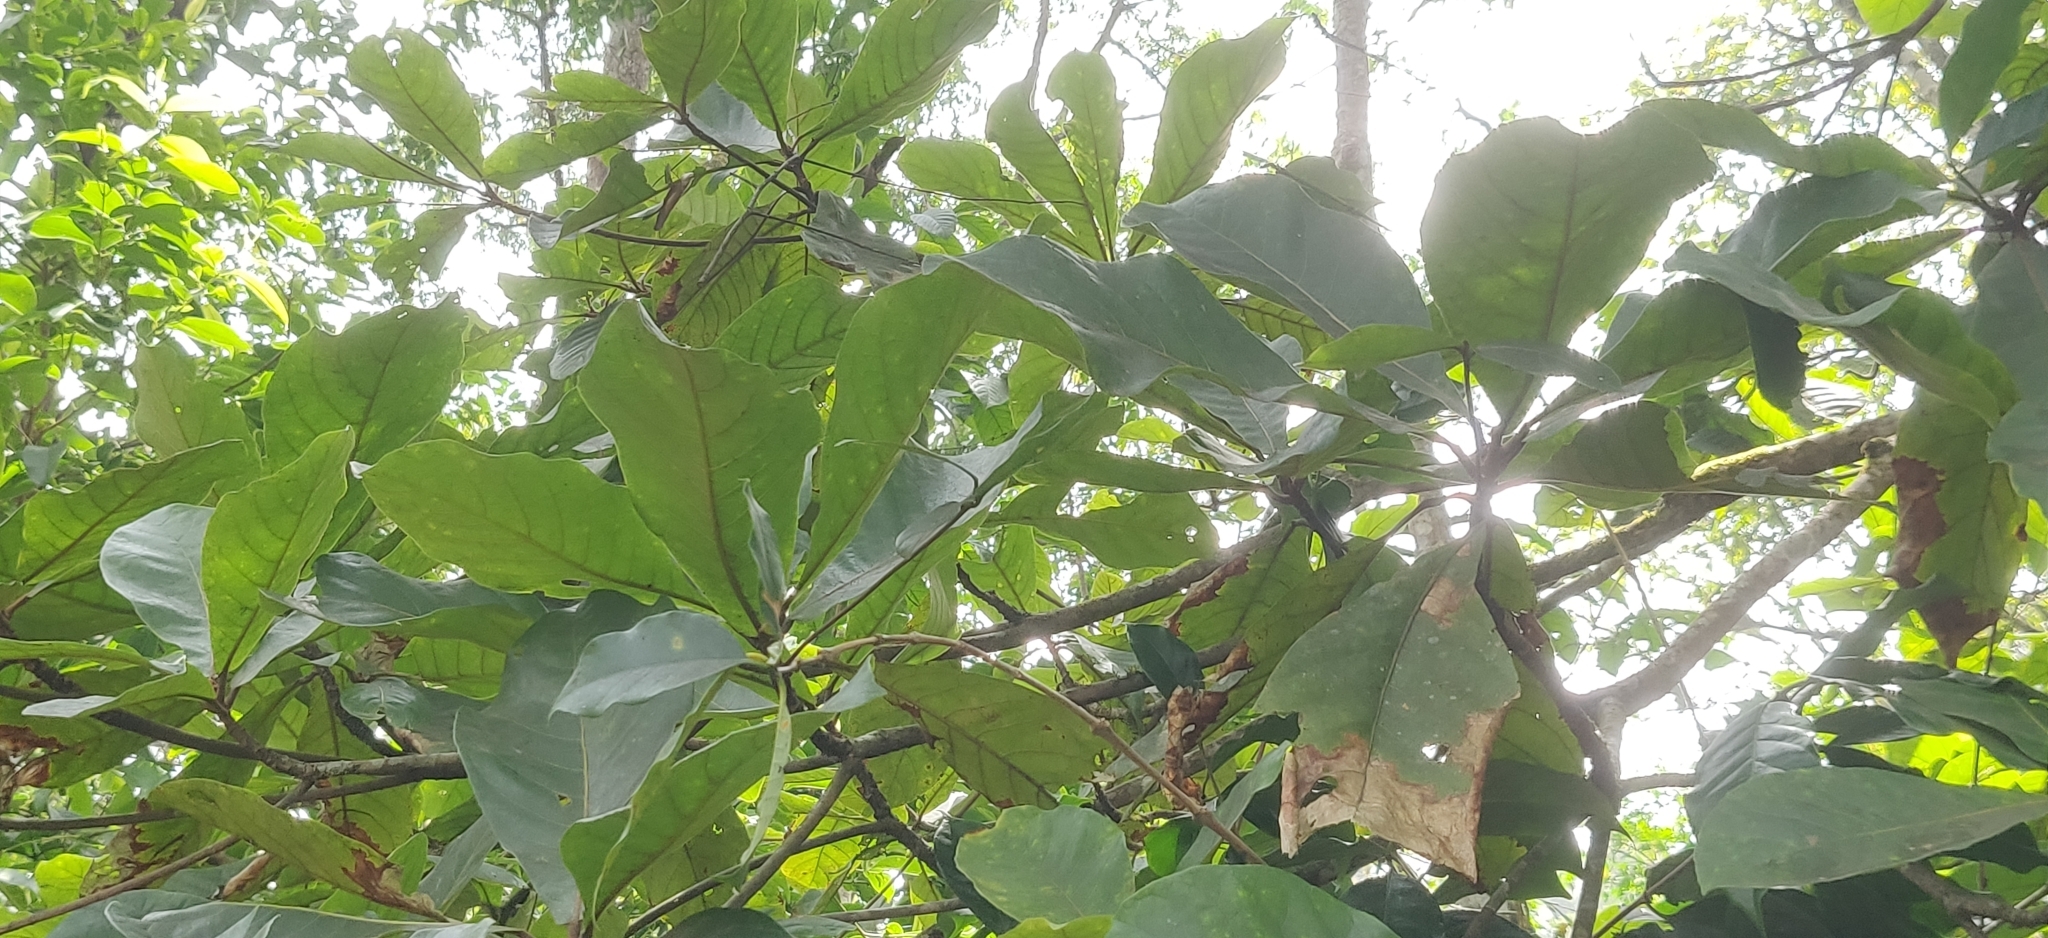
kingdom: Plantae
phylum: Tracheophyta
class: Magnoliopsida
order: Oxalidales
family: Elaeocarpaceae
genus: Elaeocarpus
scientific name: Elaeocarpus tuberculatus
